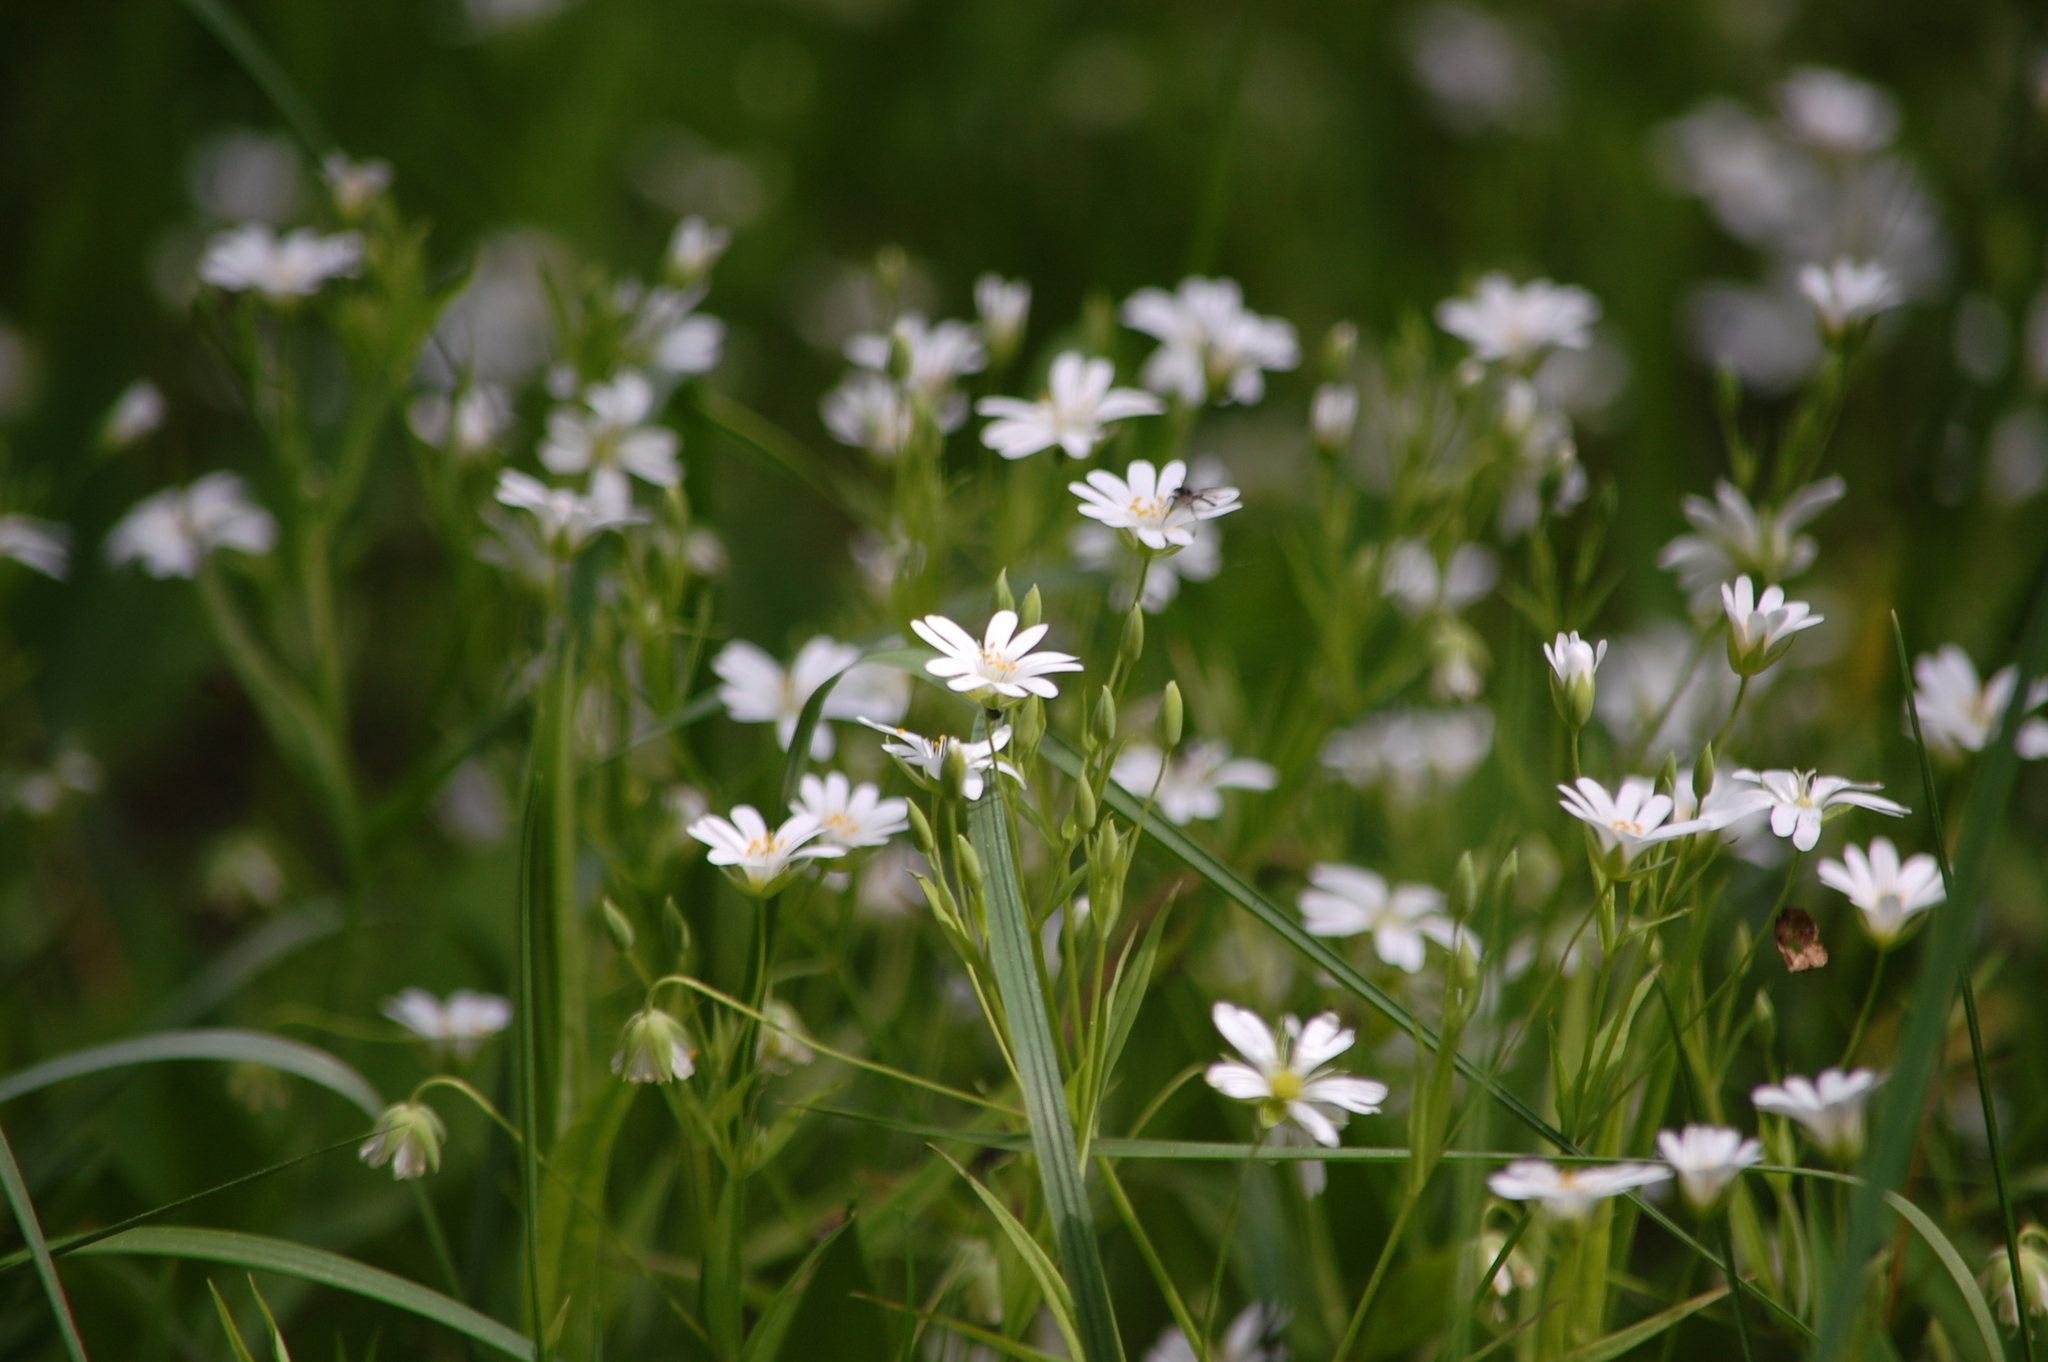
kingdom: Plantae
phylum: Tracheophyta
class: Magnoliopsida
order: Caryophyllales
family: Caryophyllaceae
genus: Rabelera
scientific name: Rabelera holostea
